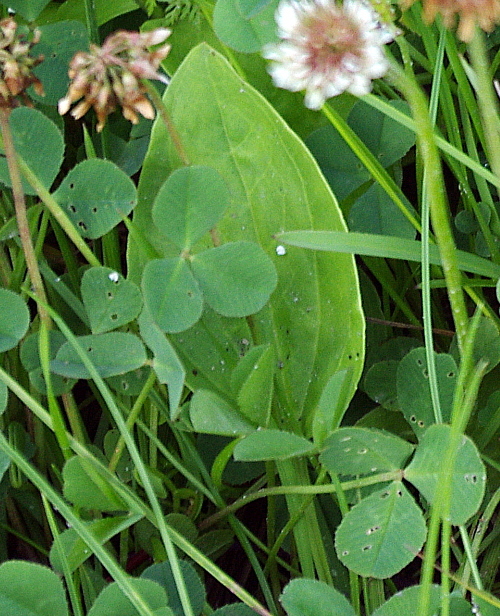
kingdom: Plantae
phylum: Tracheophyta
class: Magnoliopsida
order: Lamiales
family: Plantaginaceae
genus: Plantago
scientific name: Plantago major
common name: Common plantain
